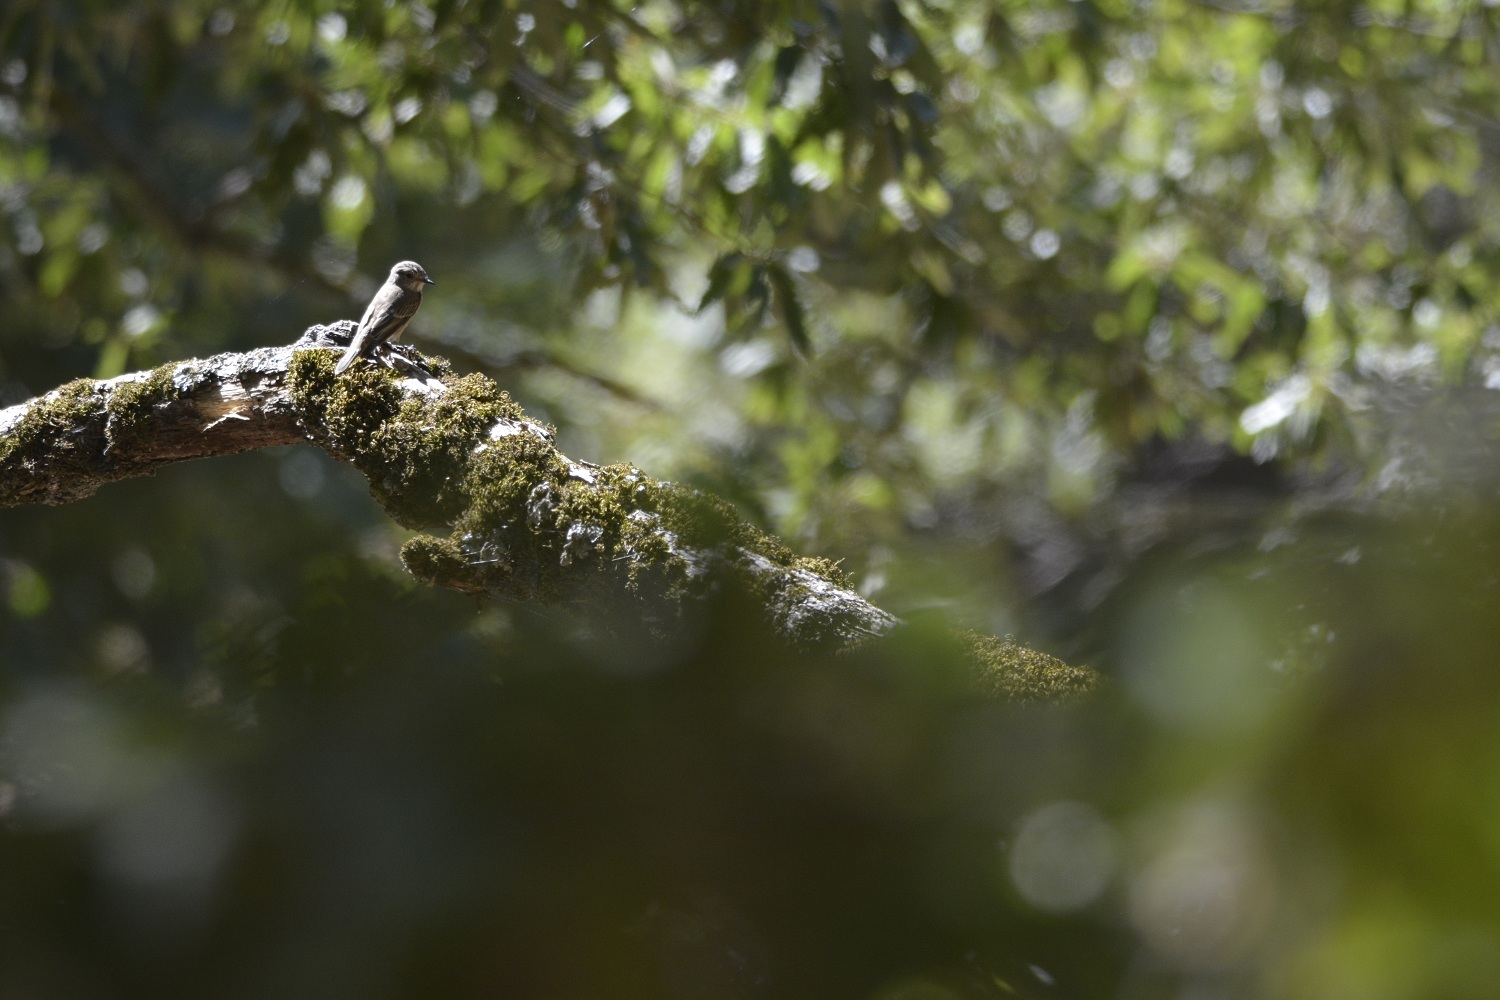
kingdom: Animalia
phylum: Chordata
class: Aves
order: Passeriformes
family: Muscicapidae
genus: Muscicapa
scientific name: Muscicapa striata
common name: Spotted flycatcher
